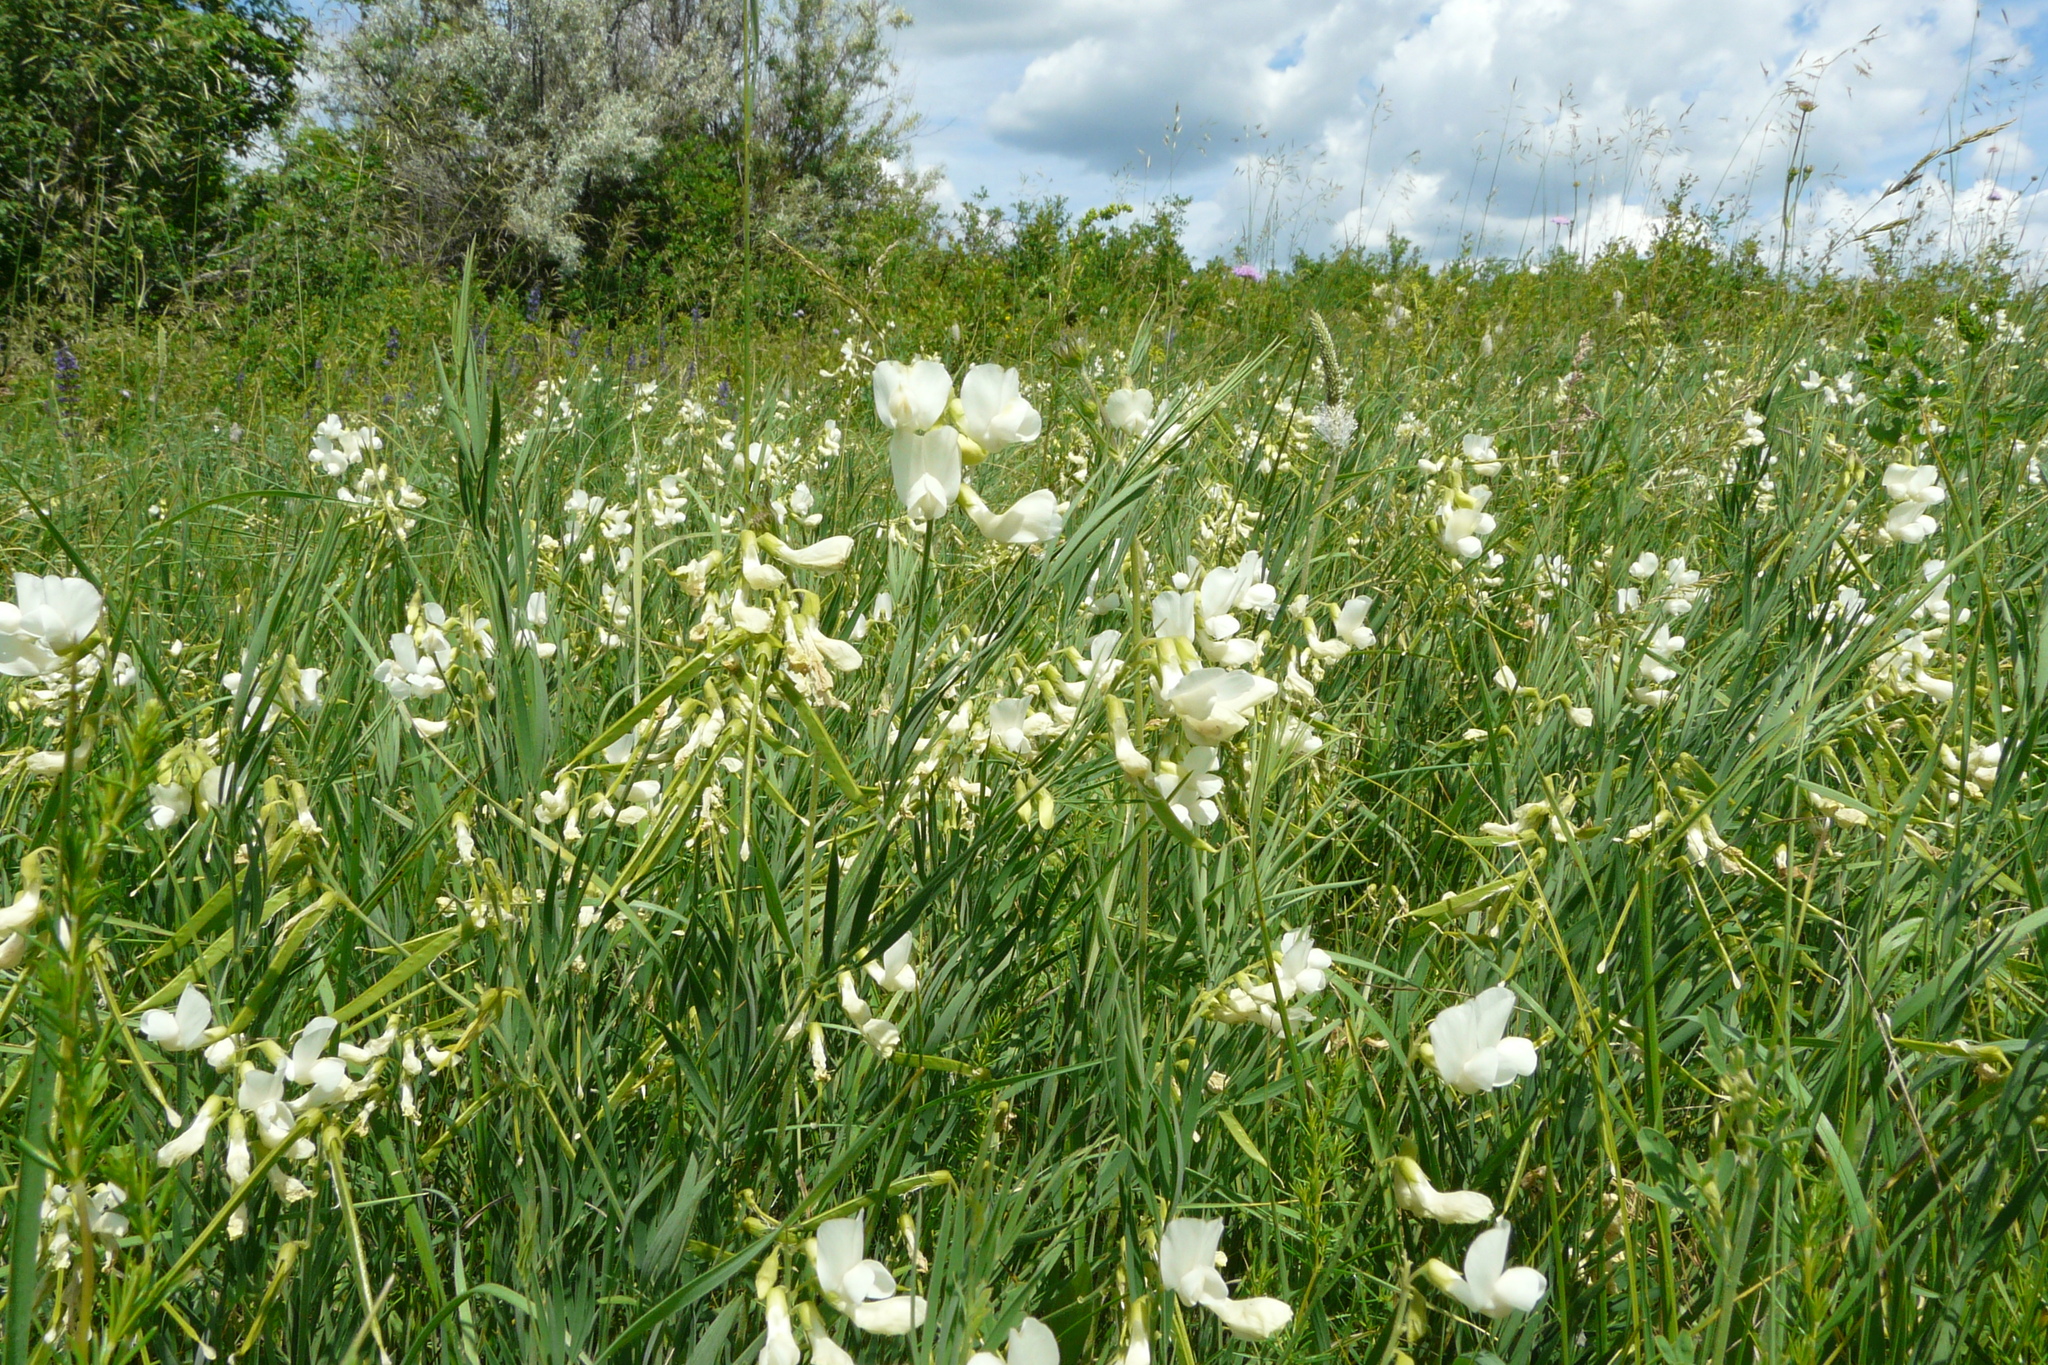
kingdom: Plantae
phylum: Tracheophyta
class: Magnoliopsida
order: Fabales
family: Fabaceae
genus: Lathyrus
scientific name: Lathyrus pallescens
